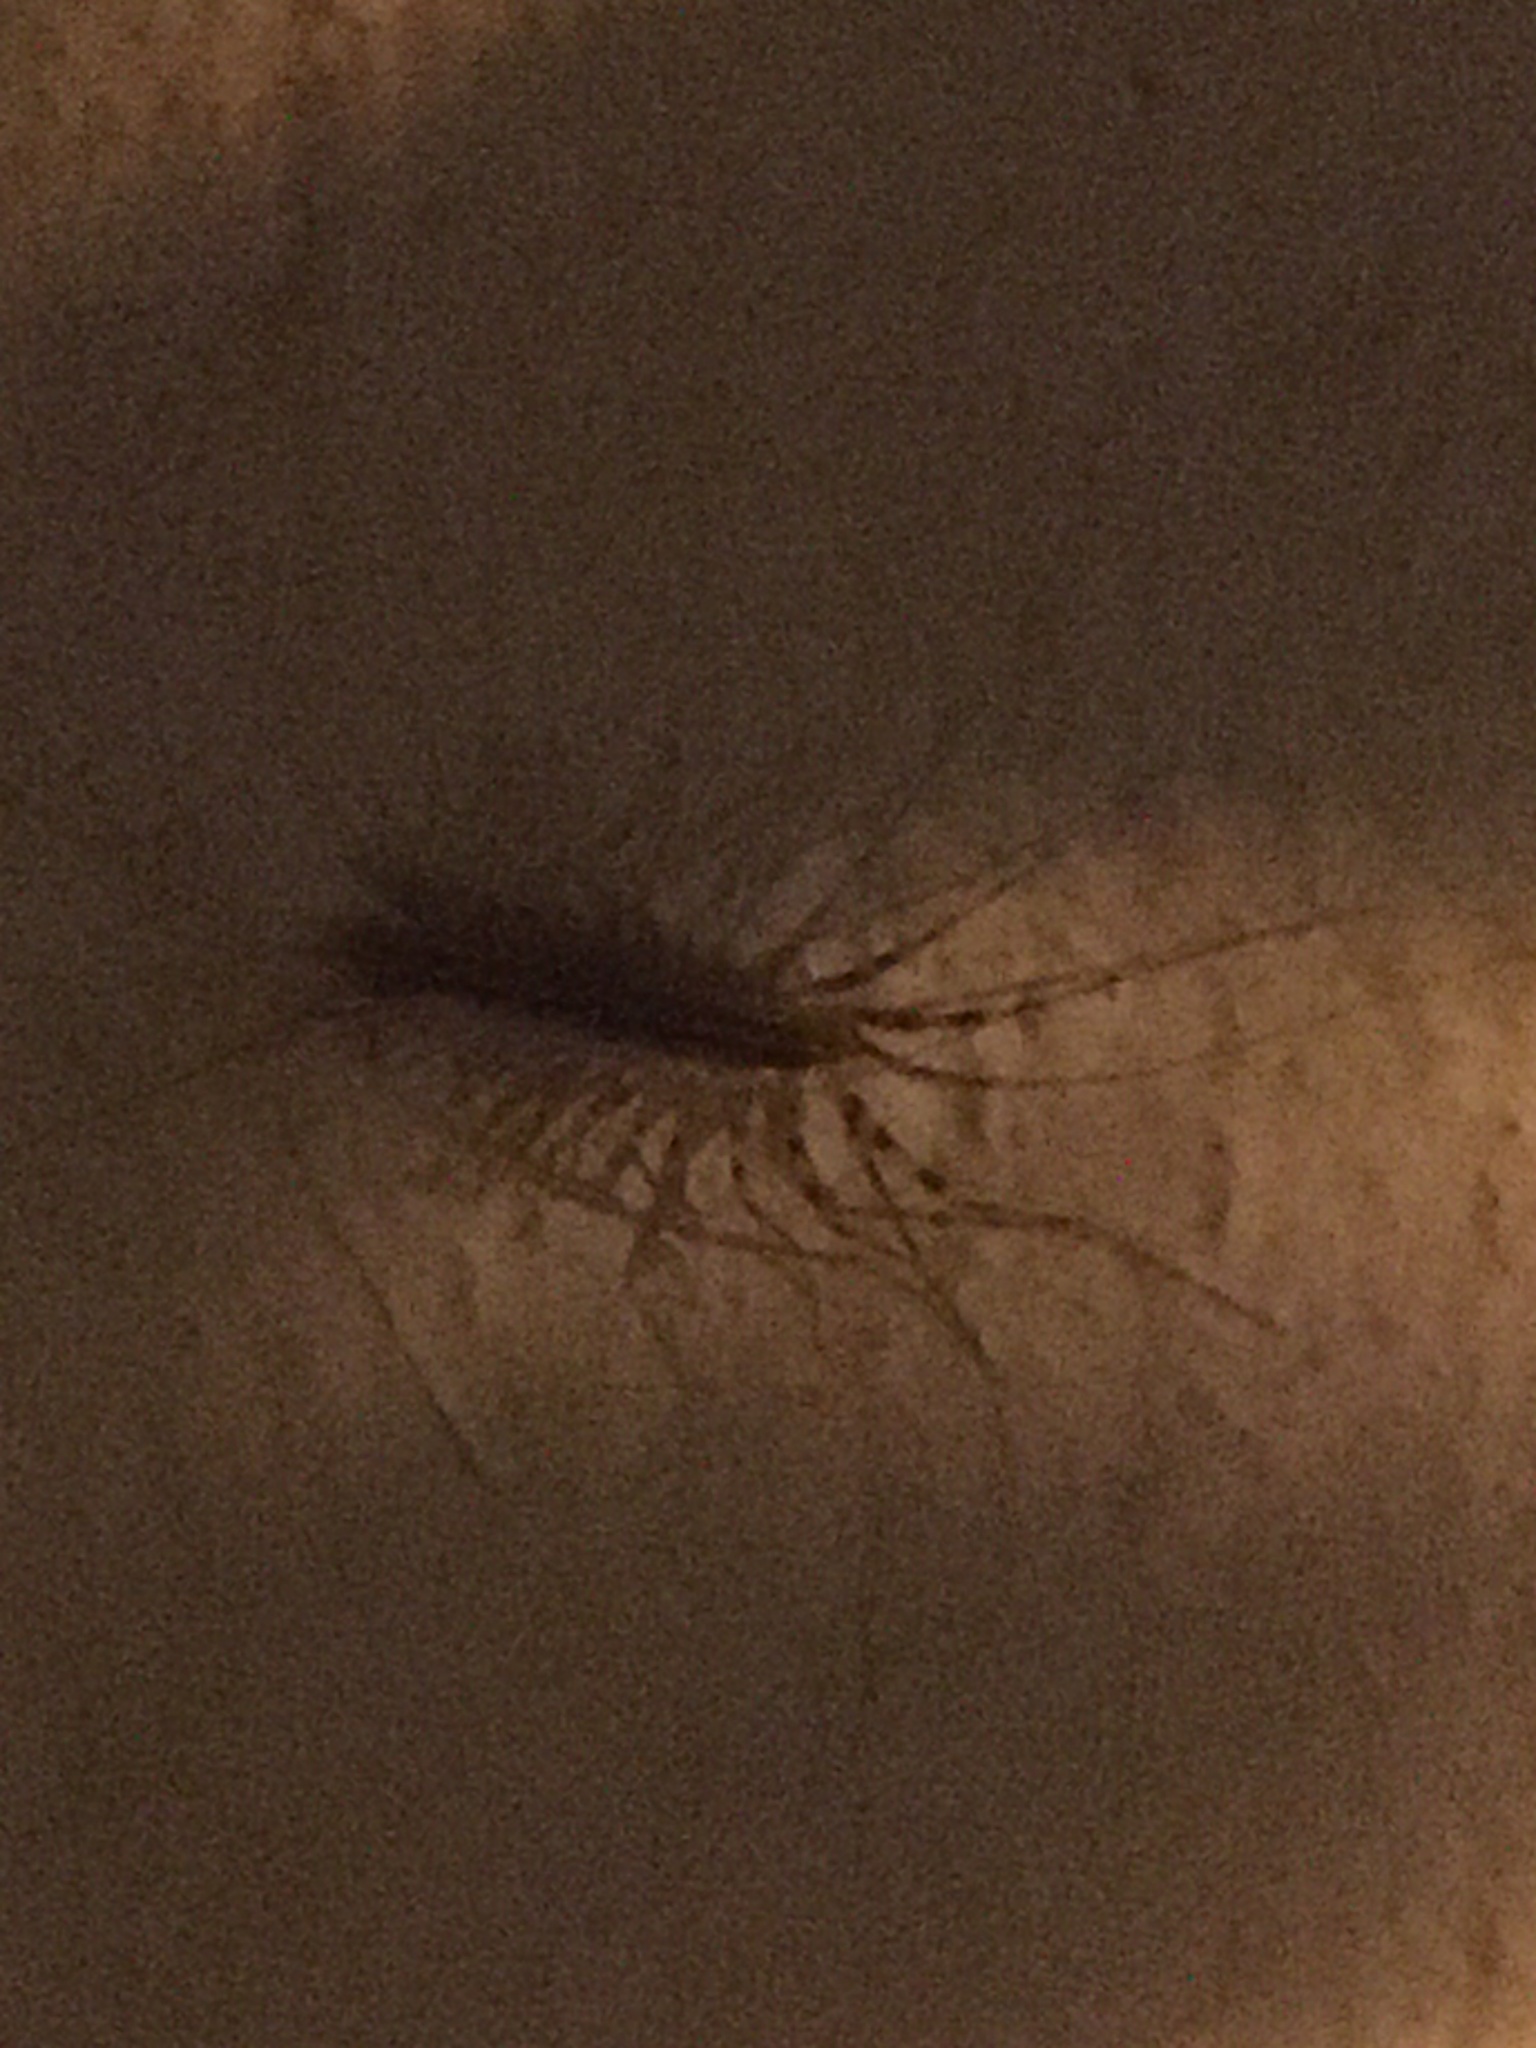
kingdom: Animalia
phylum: Arthropoda
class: Chilopoda
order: Scutigeromorpha
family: Scutigeridae
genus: Scutigera
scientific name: Scutigera coleoptrata
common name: House centipede
